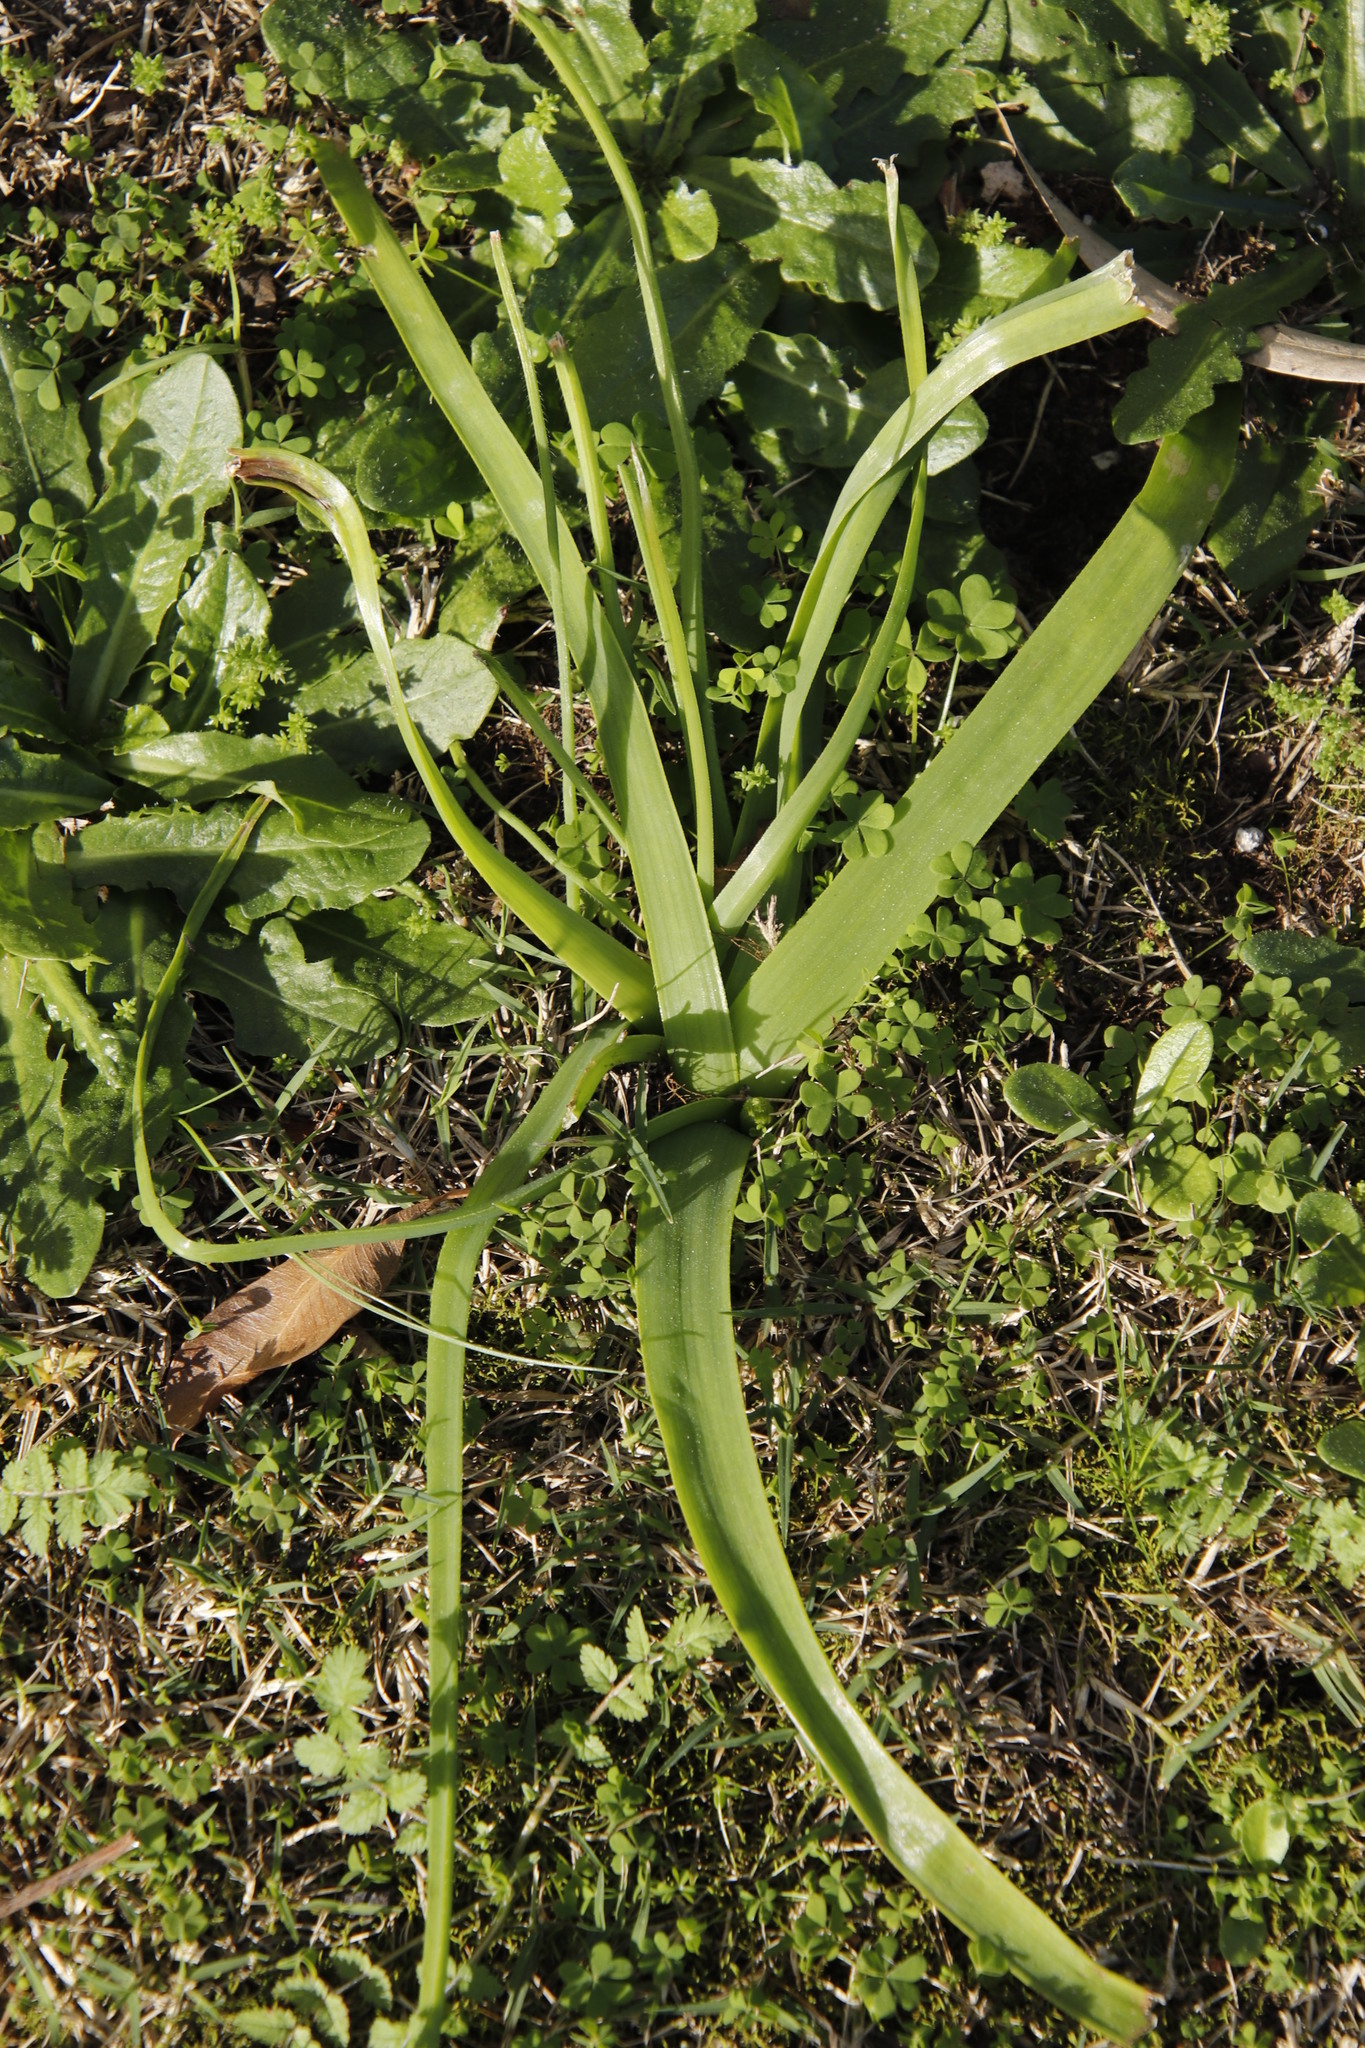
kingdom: Plantae
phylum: Tracheophyta
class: Liliopsida
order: Asparagales
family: Asphodelaceae
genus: Trachyandra
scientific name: Trachyandra ciliata
